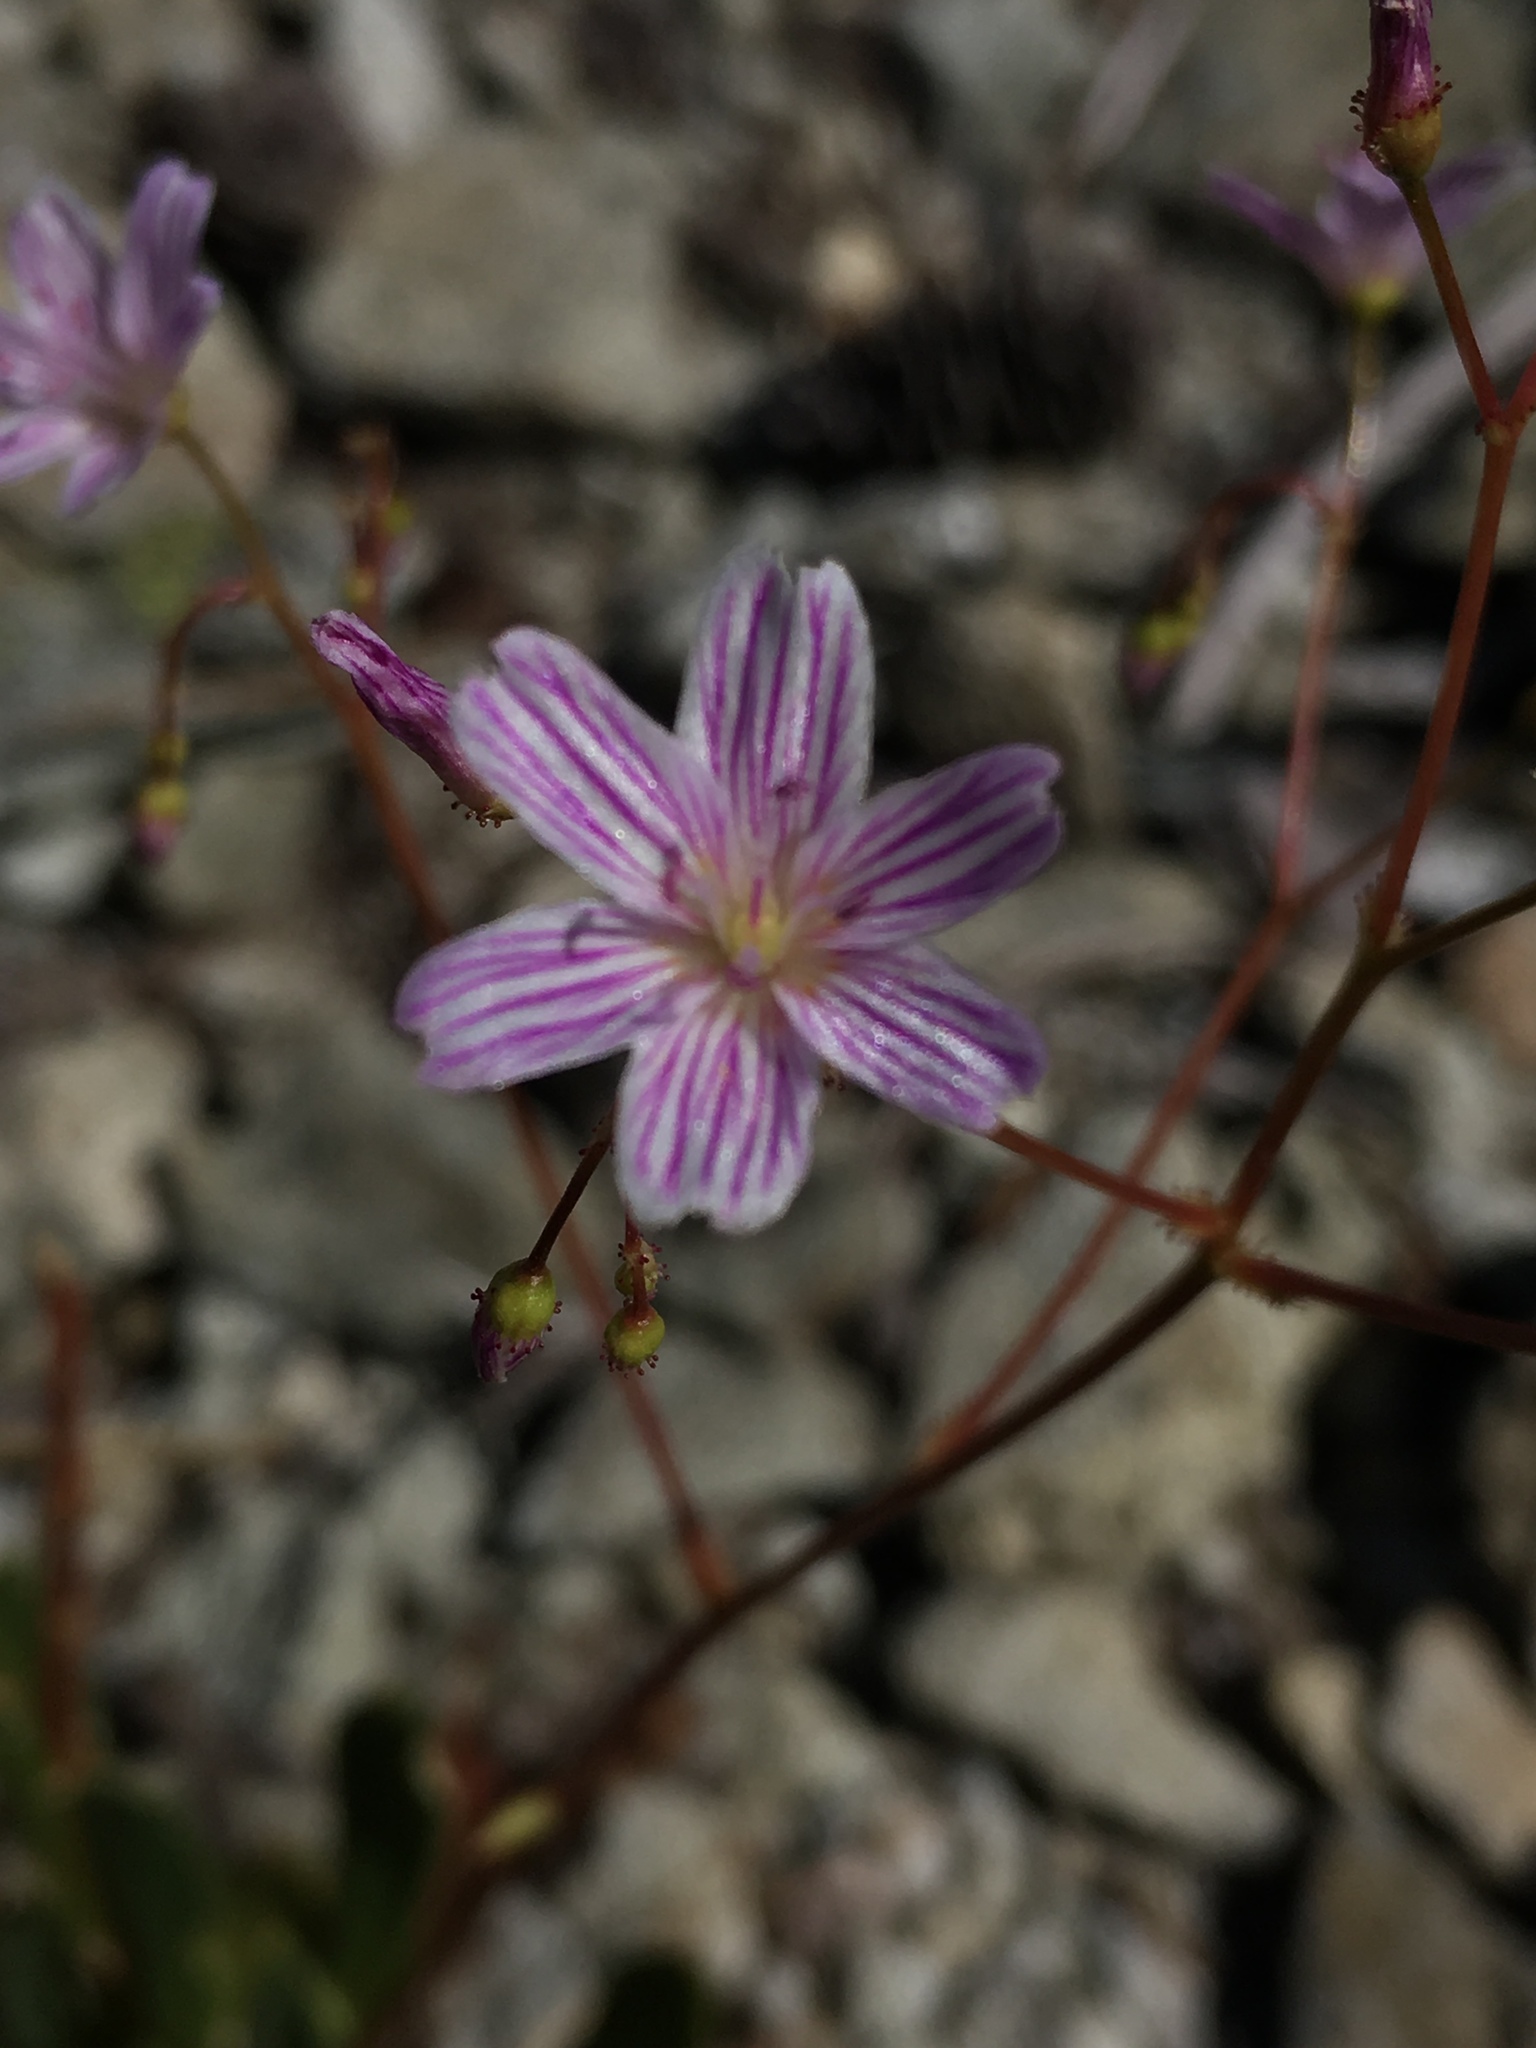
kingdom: Plantae
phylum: Tracheophyta
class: Magnoliopsida
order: Caryophyllales
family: Montiaceae
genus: Lewisia
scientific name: Lewisia columbiana
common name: Columbia lewisia
